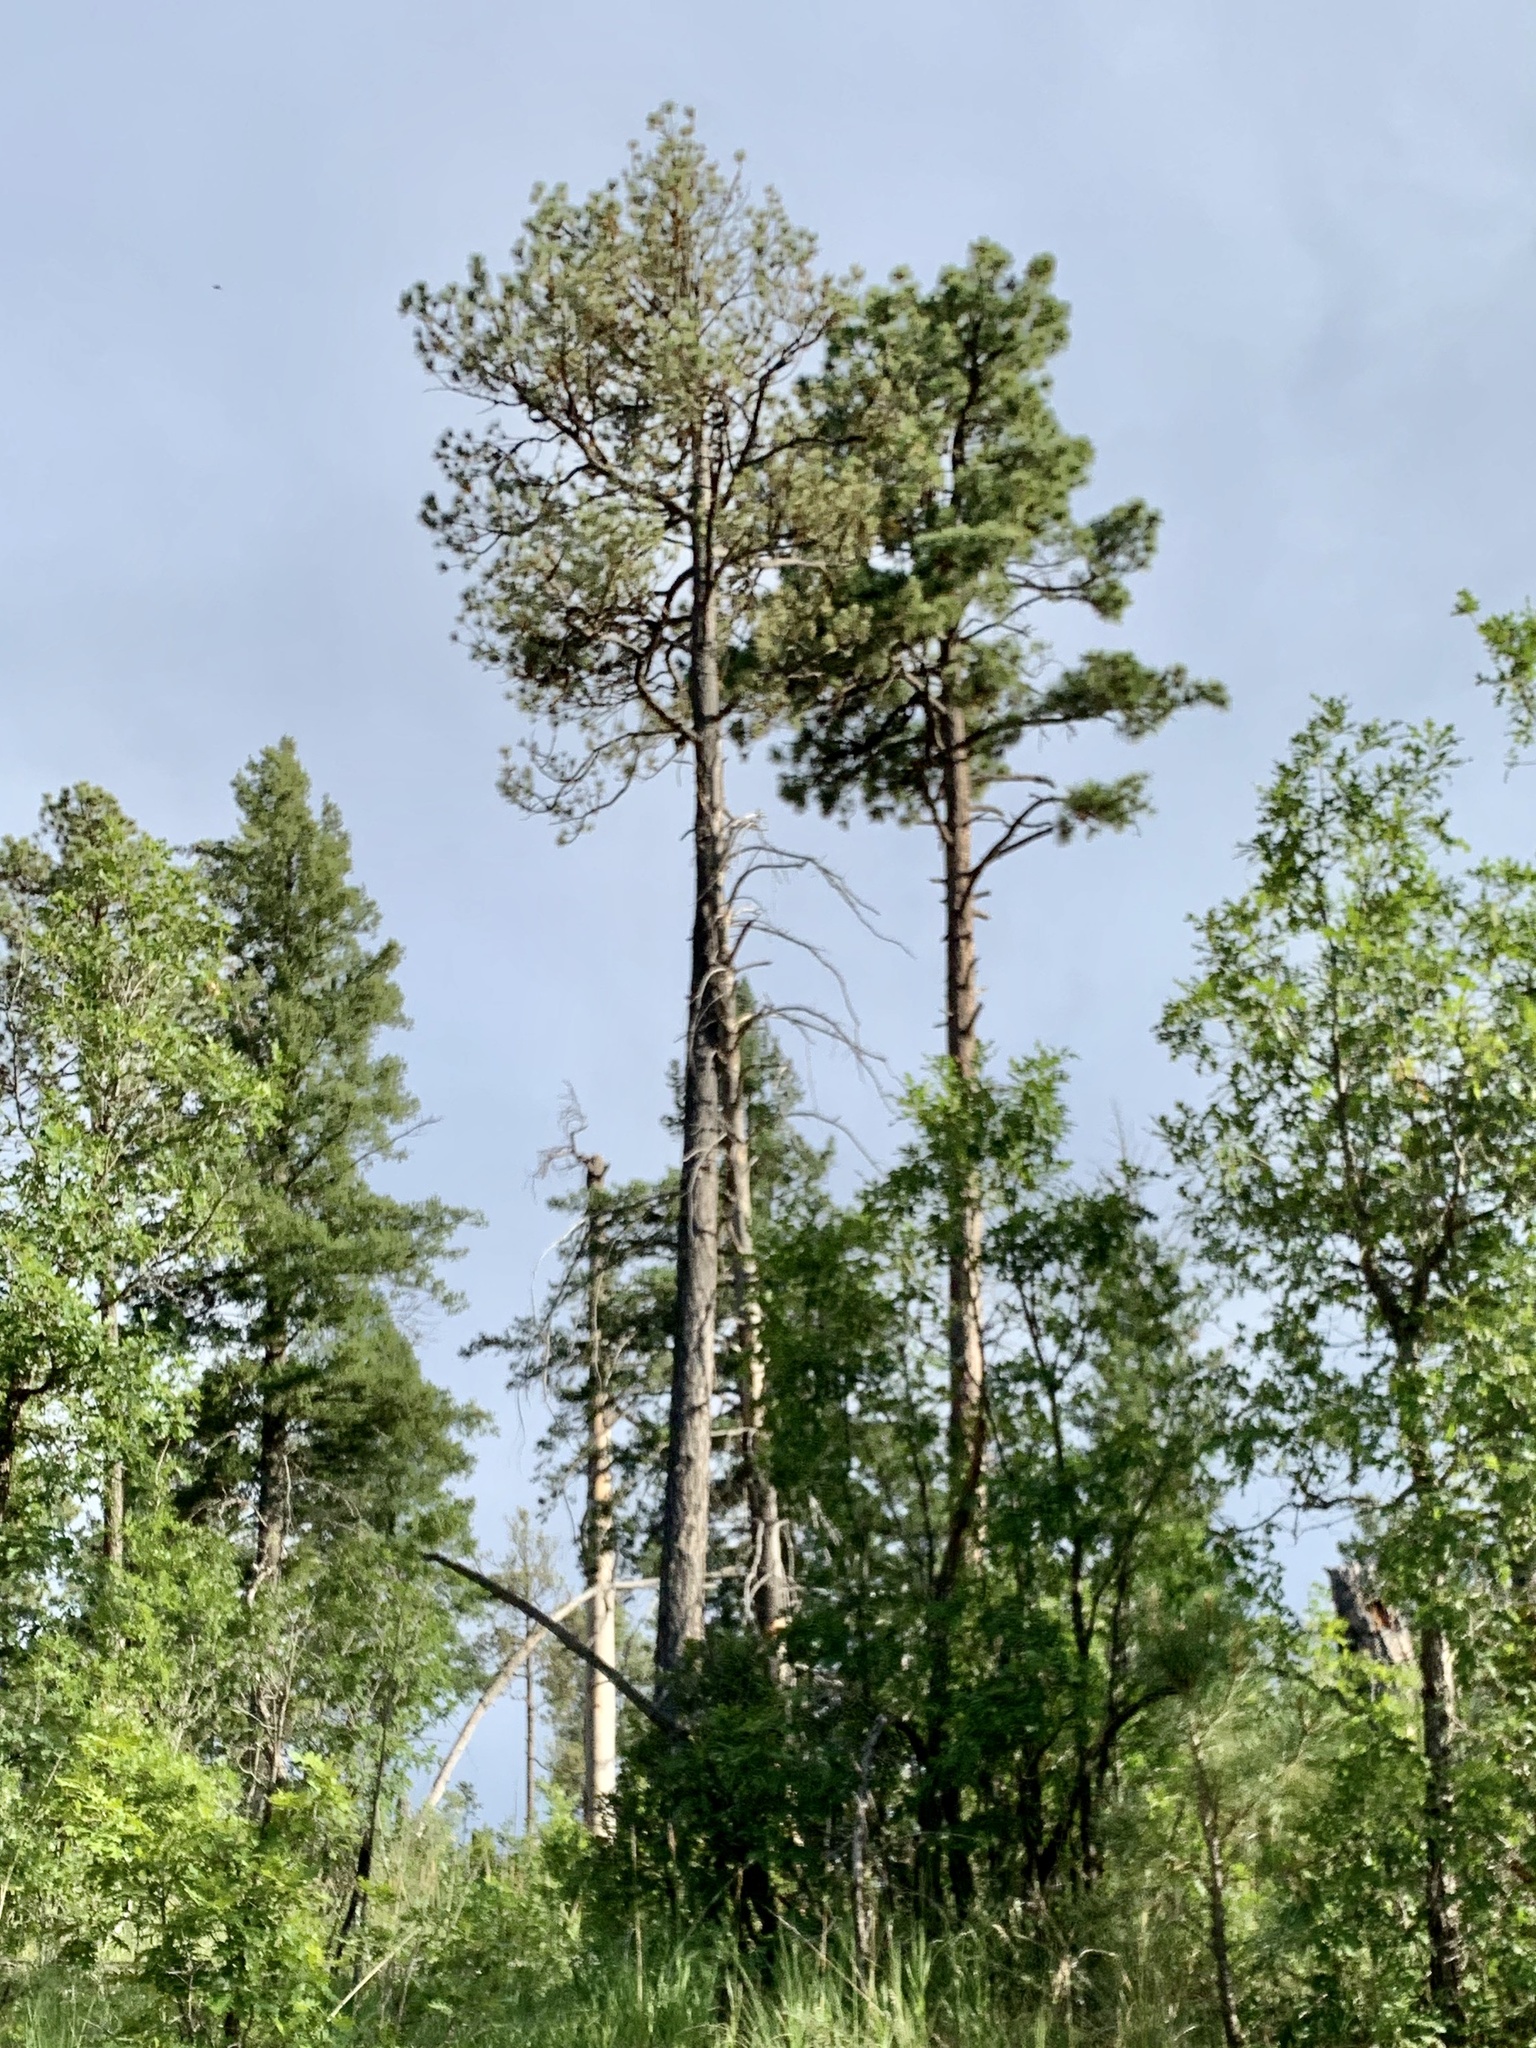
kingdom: Plantae
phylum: Tracheophyta
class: Pinopsida
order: Pinales
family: Pinaceae
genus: Pinus
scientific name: Pinus ponderosa
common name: Western yellow-pine
